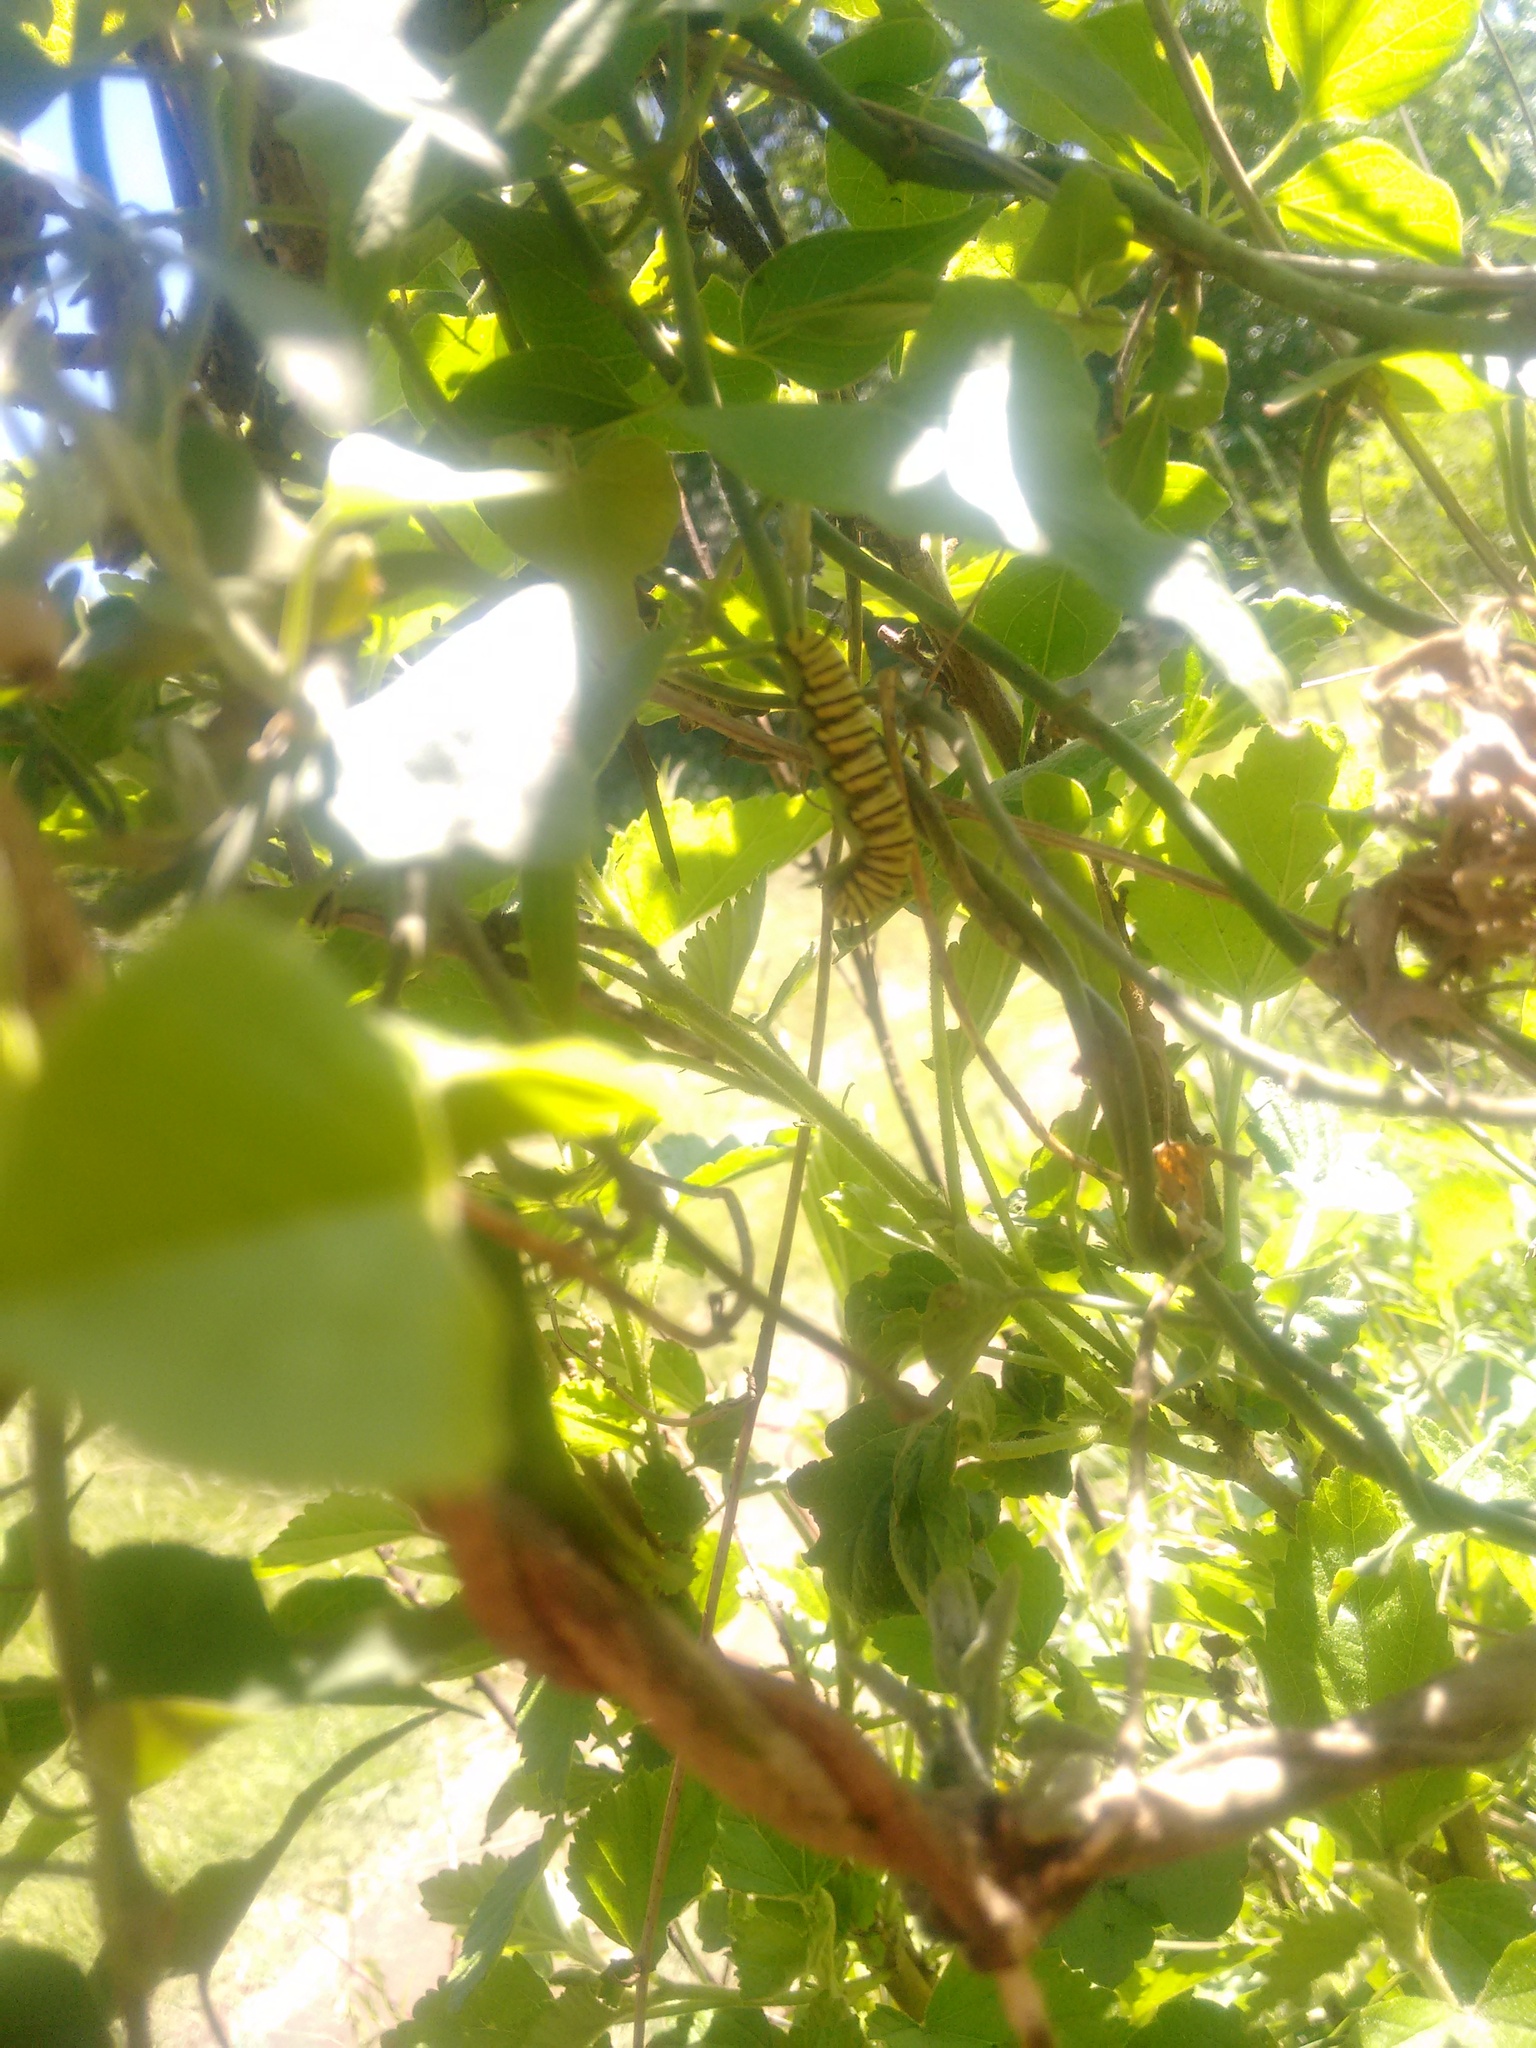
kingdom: Animalia
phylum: Arthropoda
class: Insecta
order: Lepidoptera
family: Nymphalidae
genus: Danaus
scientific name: Danaus erippus
